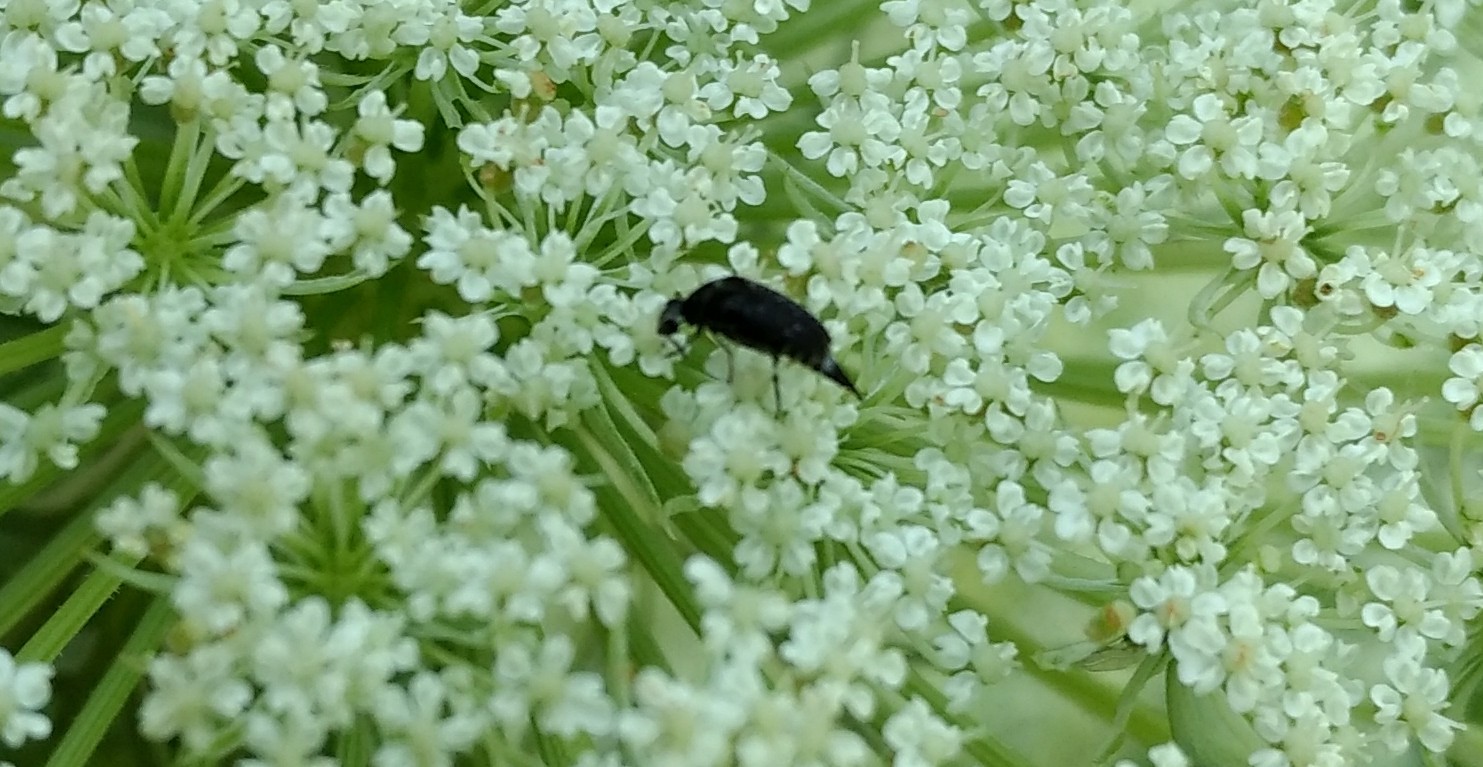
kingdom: Animalia
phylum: Arthropoda
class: Insecta
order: Coleoptera
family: Mordellidae
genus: Mordella
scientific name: Mordella marginata
